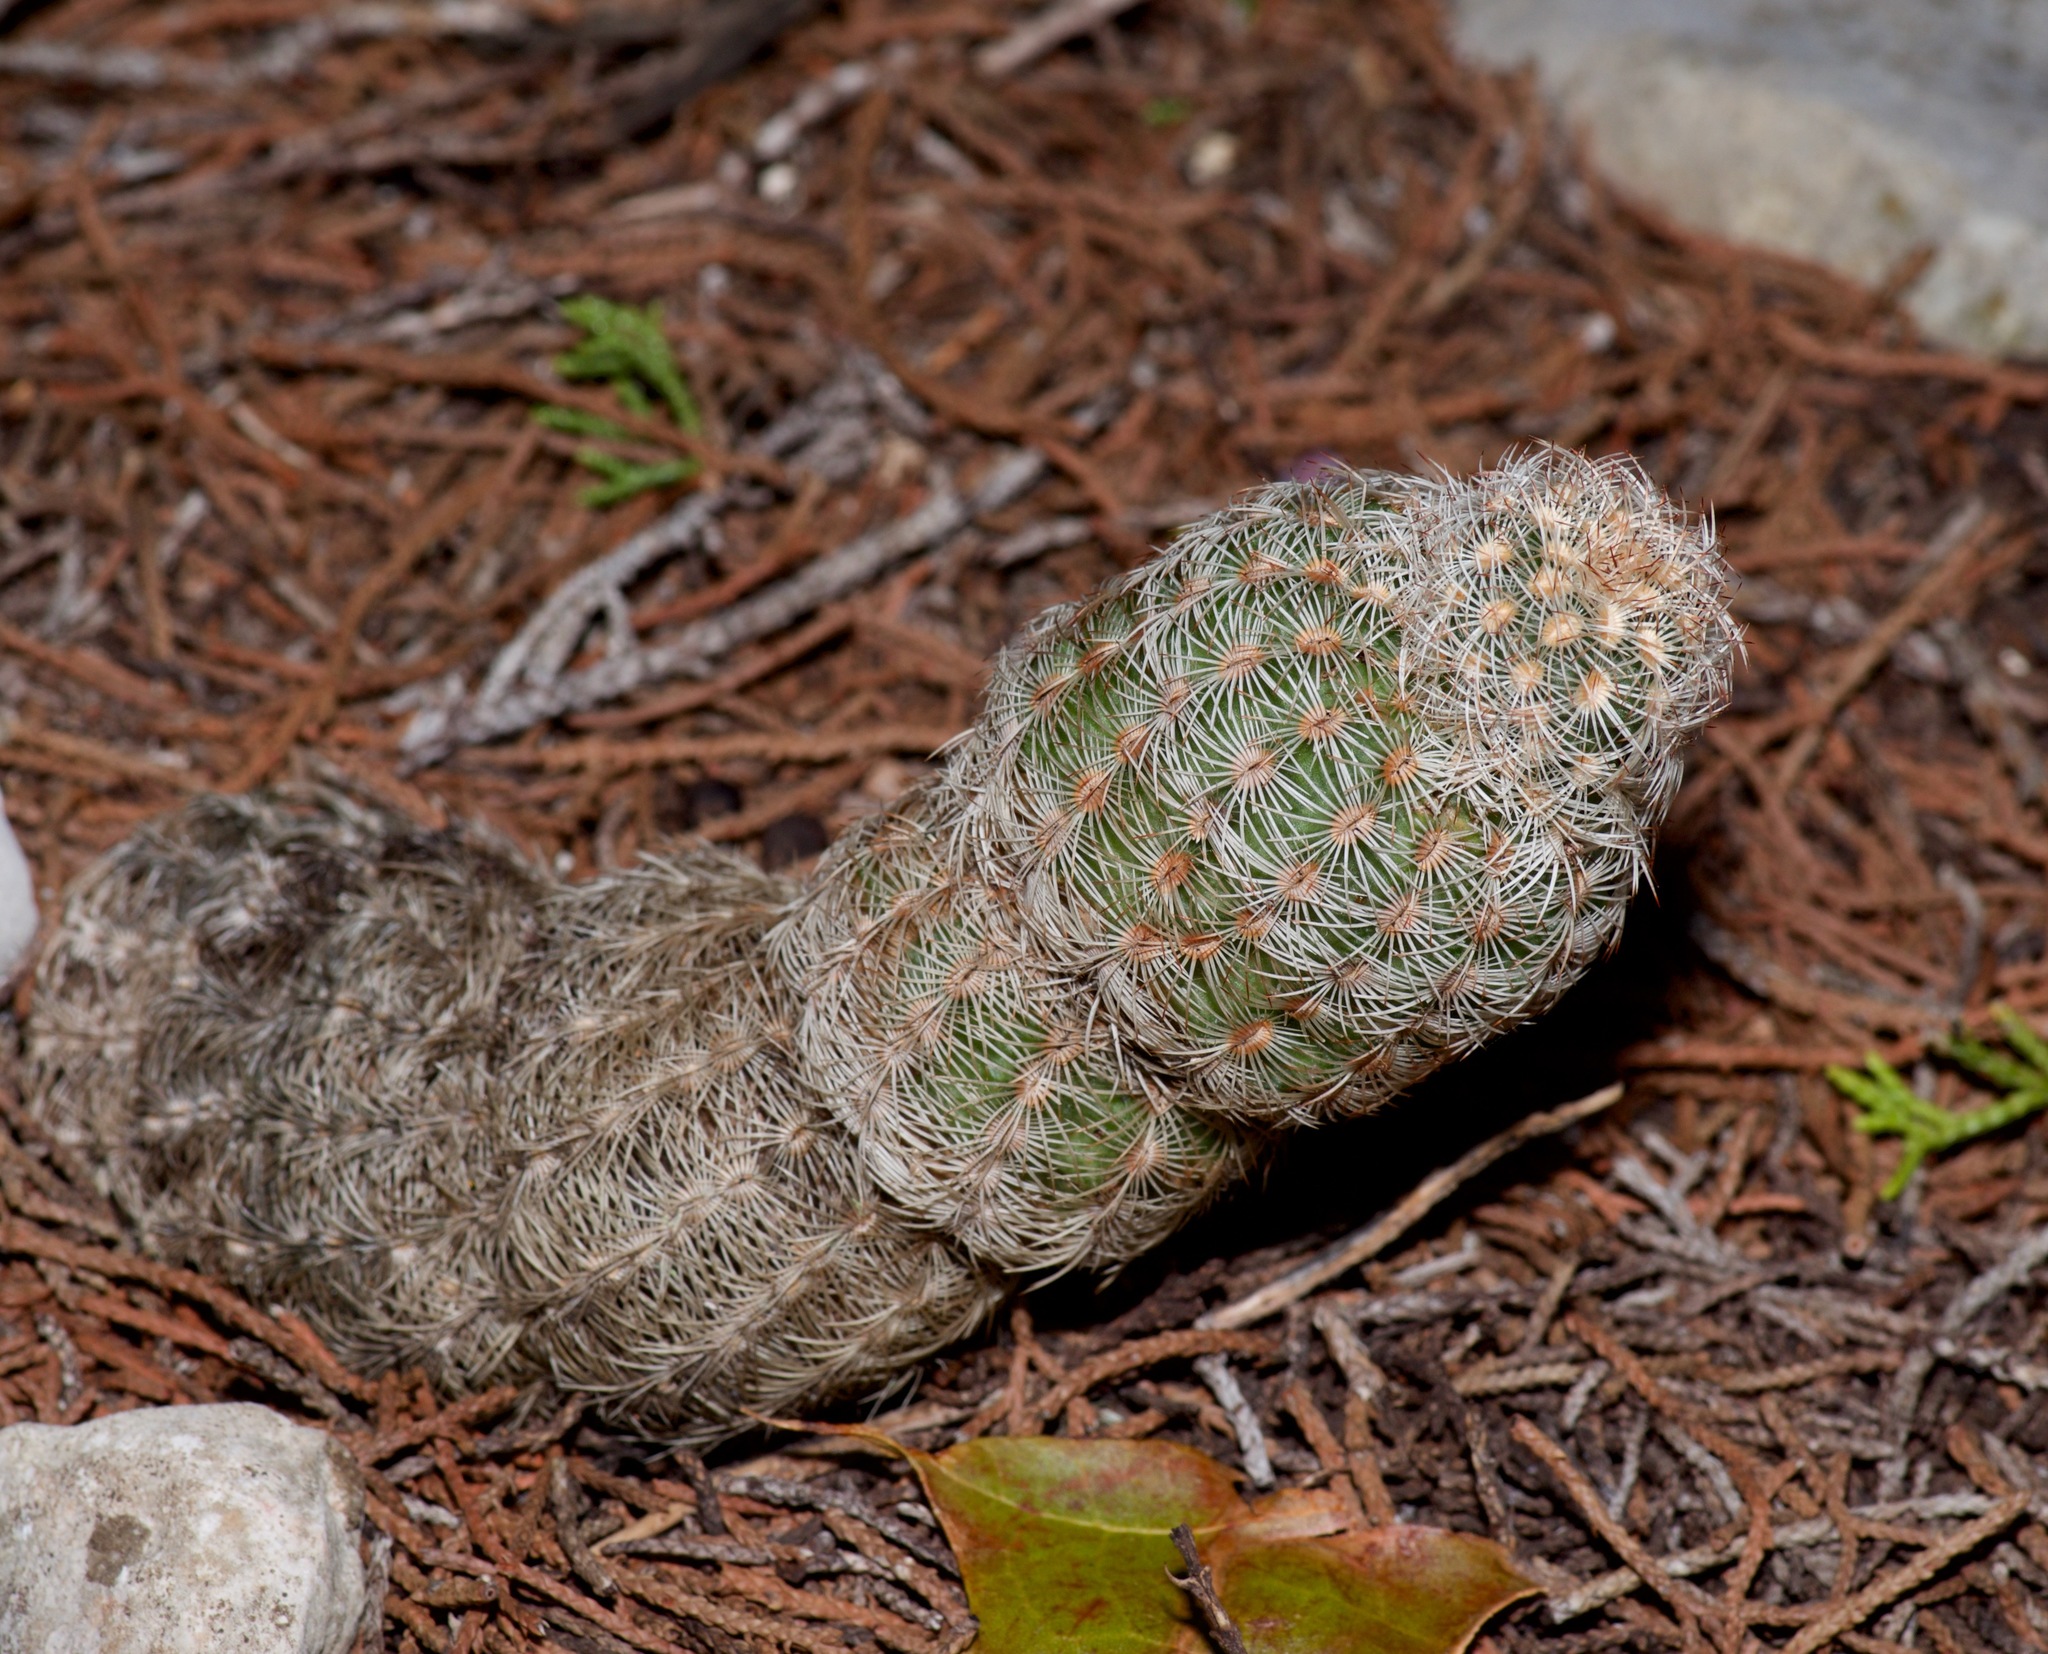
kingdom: Plantae
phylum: Tracheophyta
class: Magnoliopsida
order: Caryophyllales
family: Cactaceae
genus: Echinocereus
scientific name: Echinocereus reichenbachii
